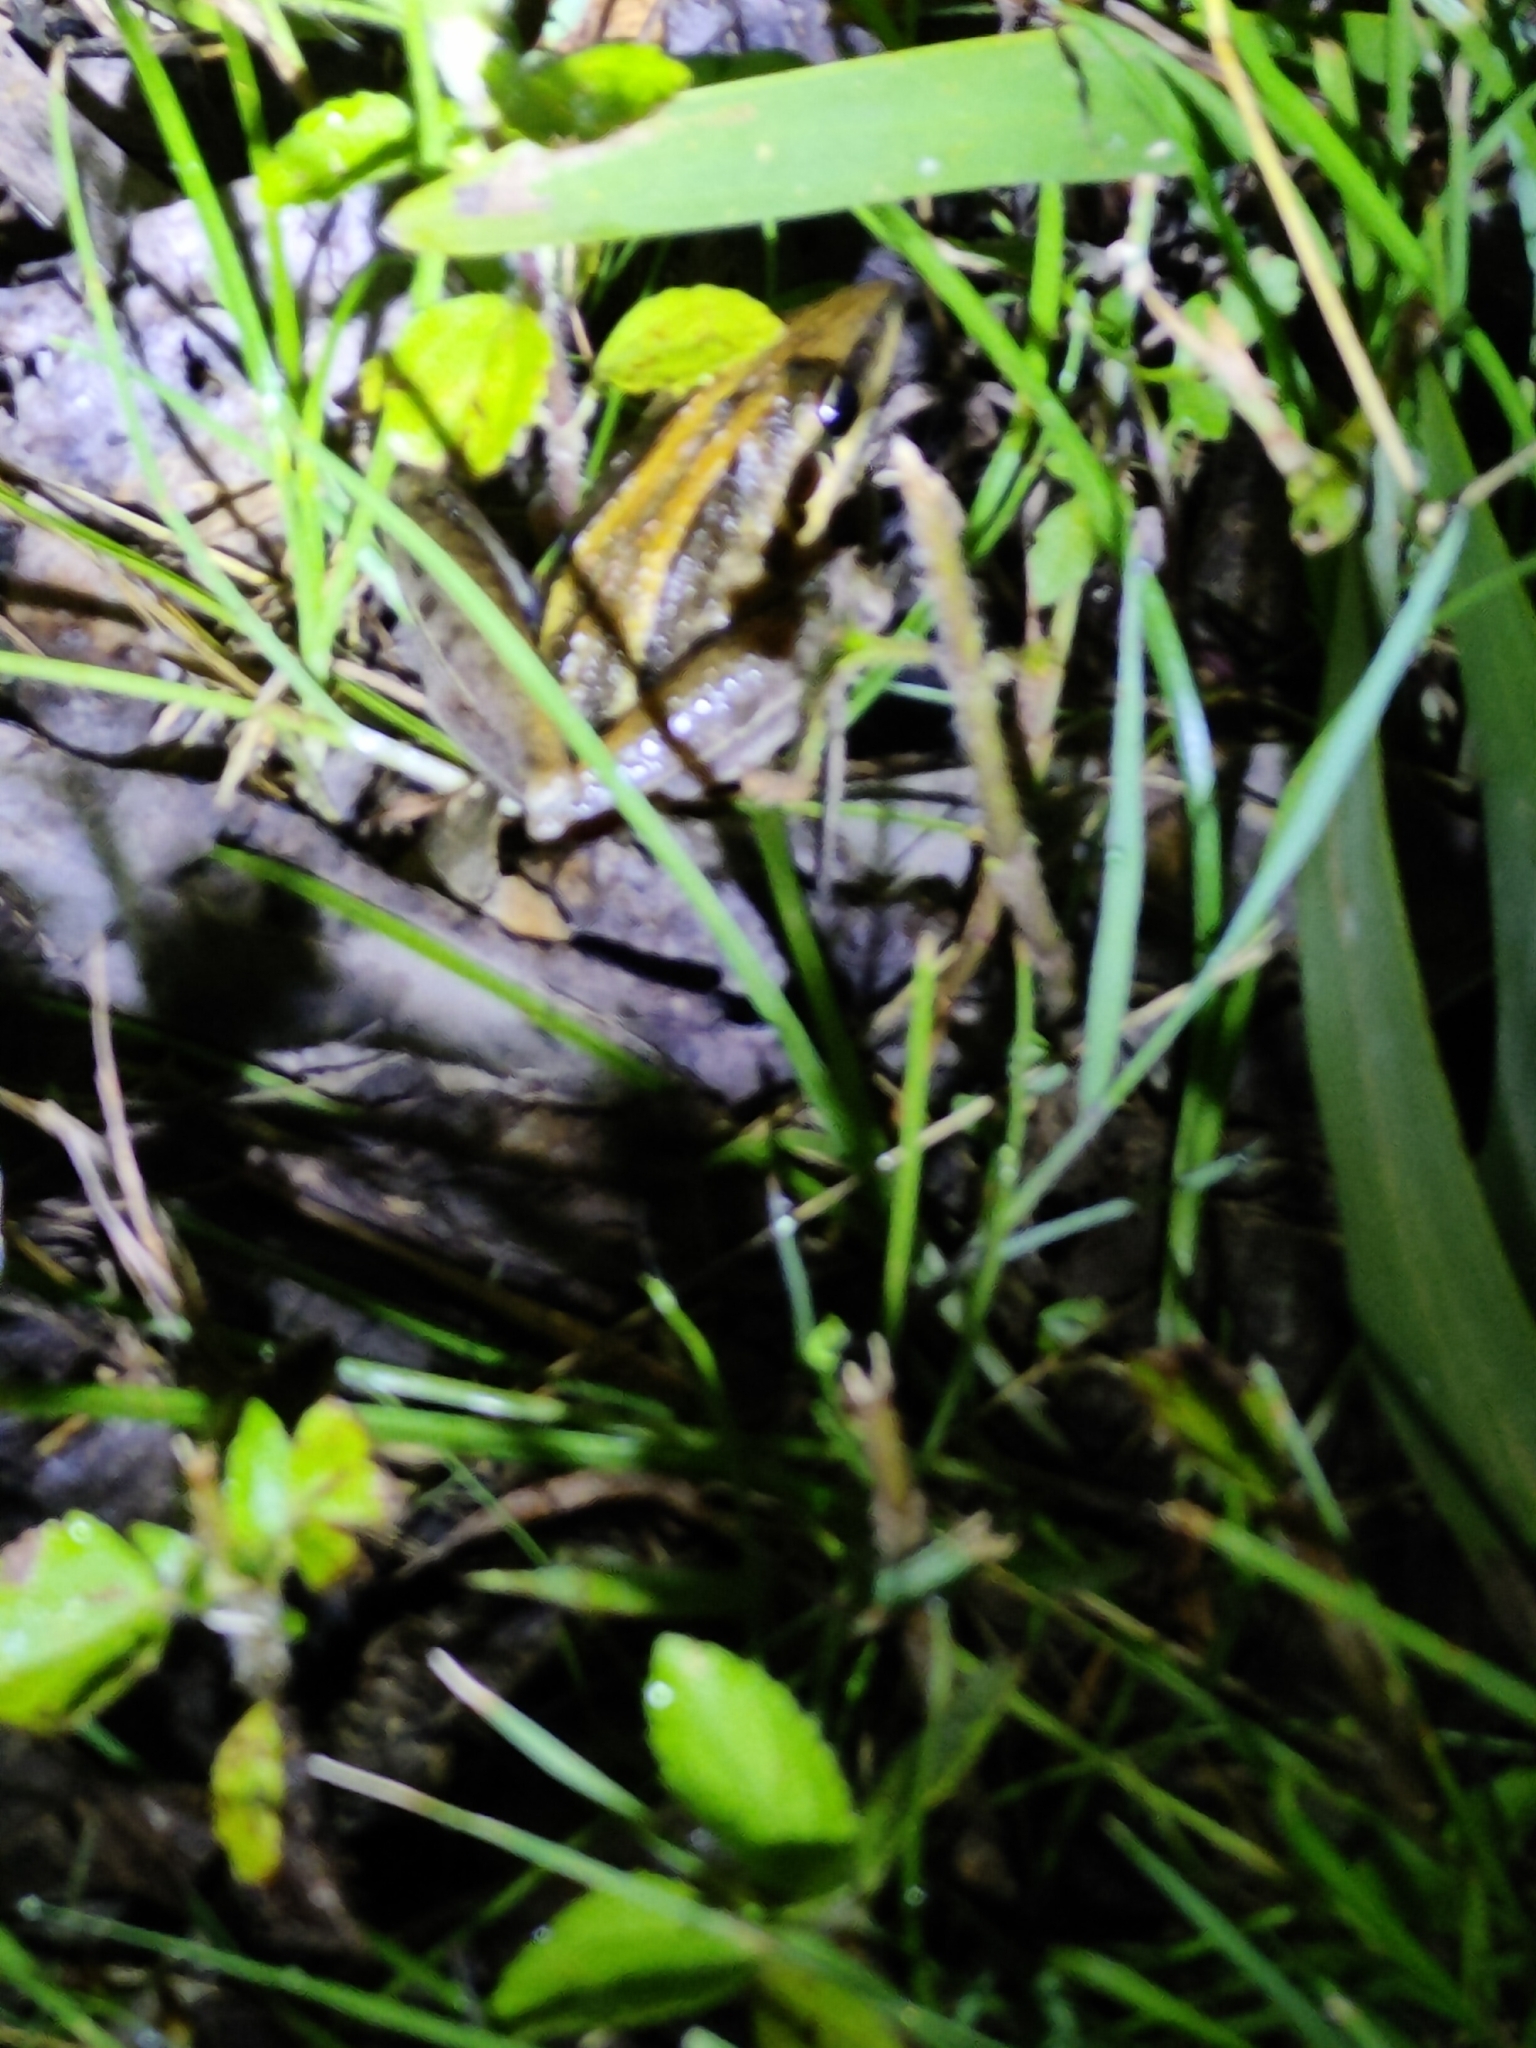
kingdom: Animalia
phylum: Chordata
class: Amphibia
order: Anura
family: Pelodryadidae
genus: Litoria
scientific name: Litoria nasuta
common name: Rocket frog
